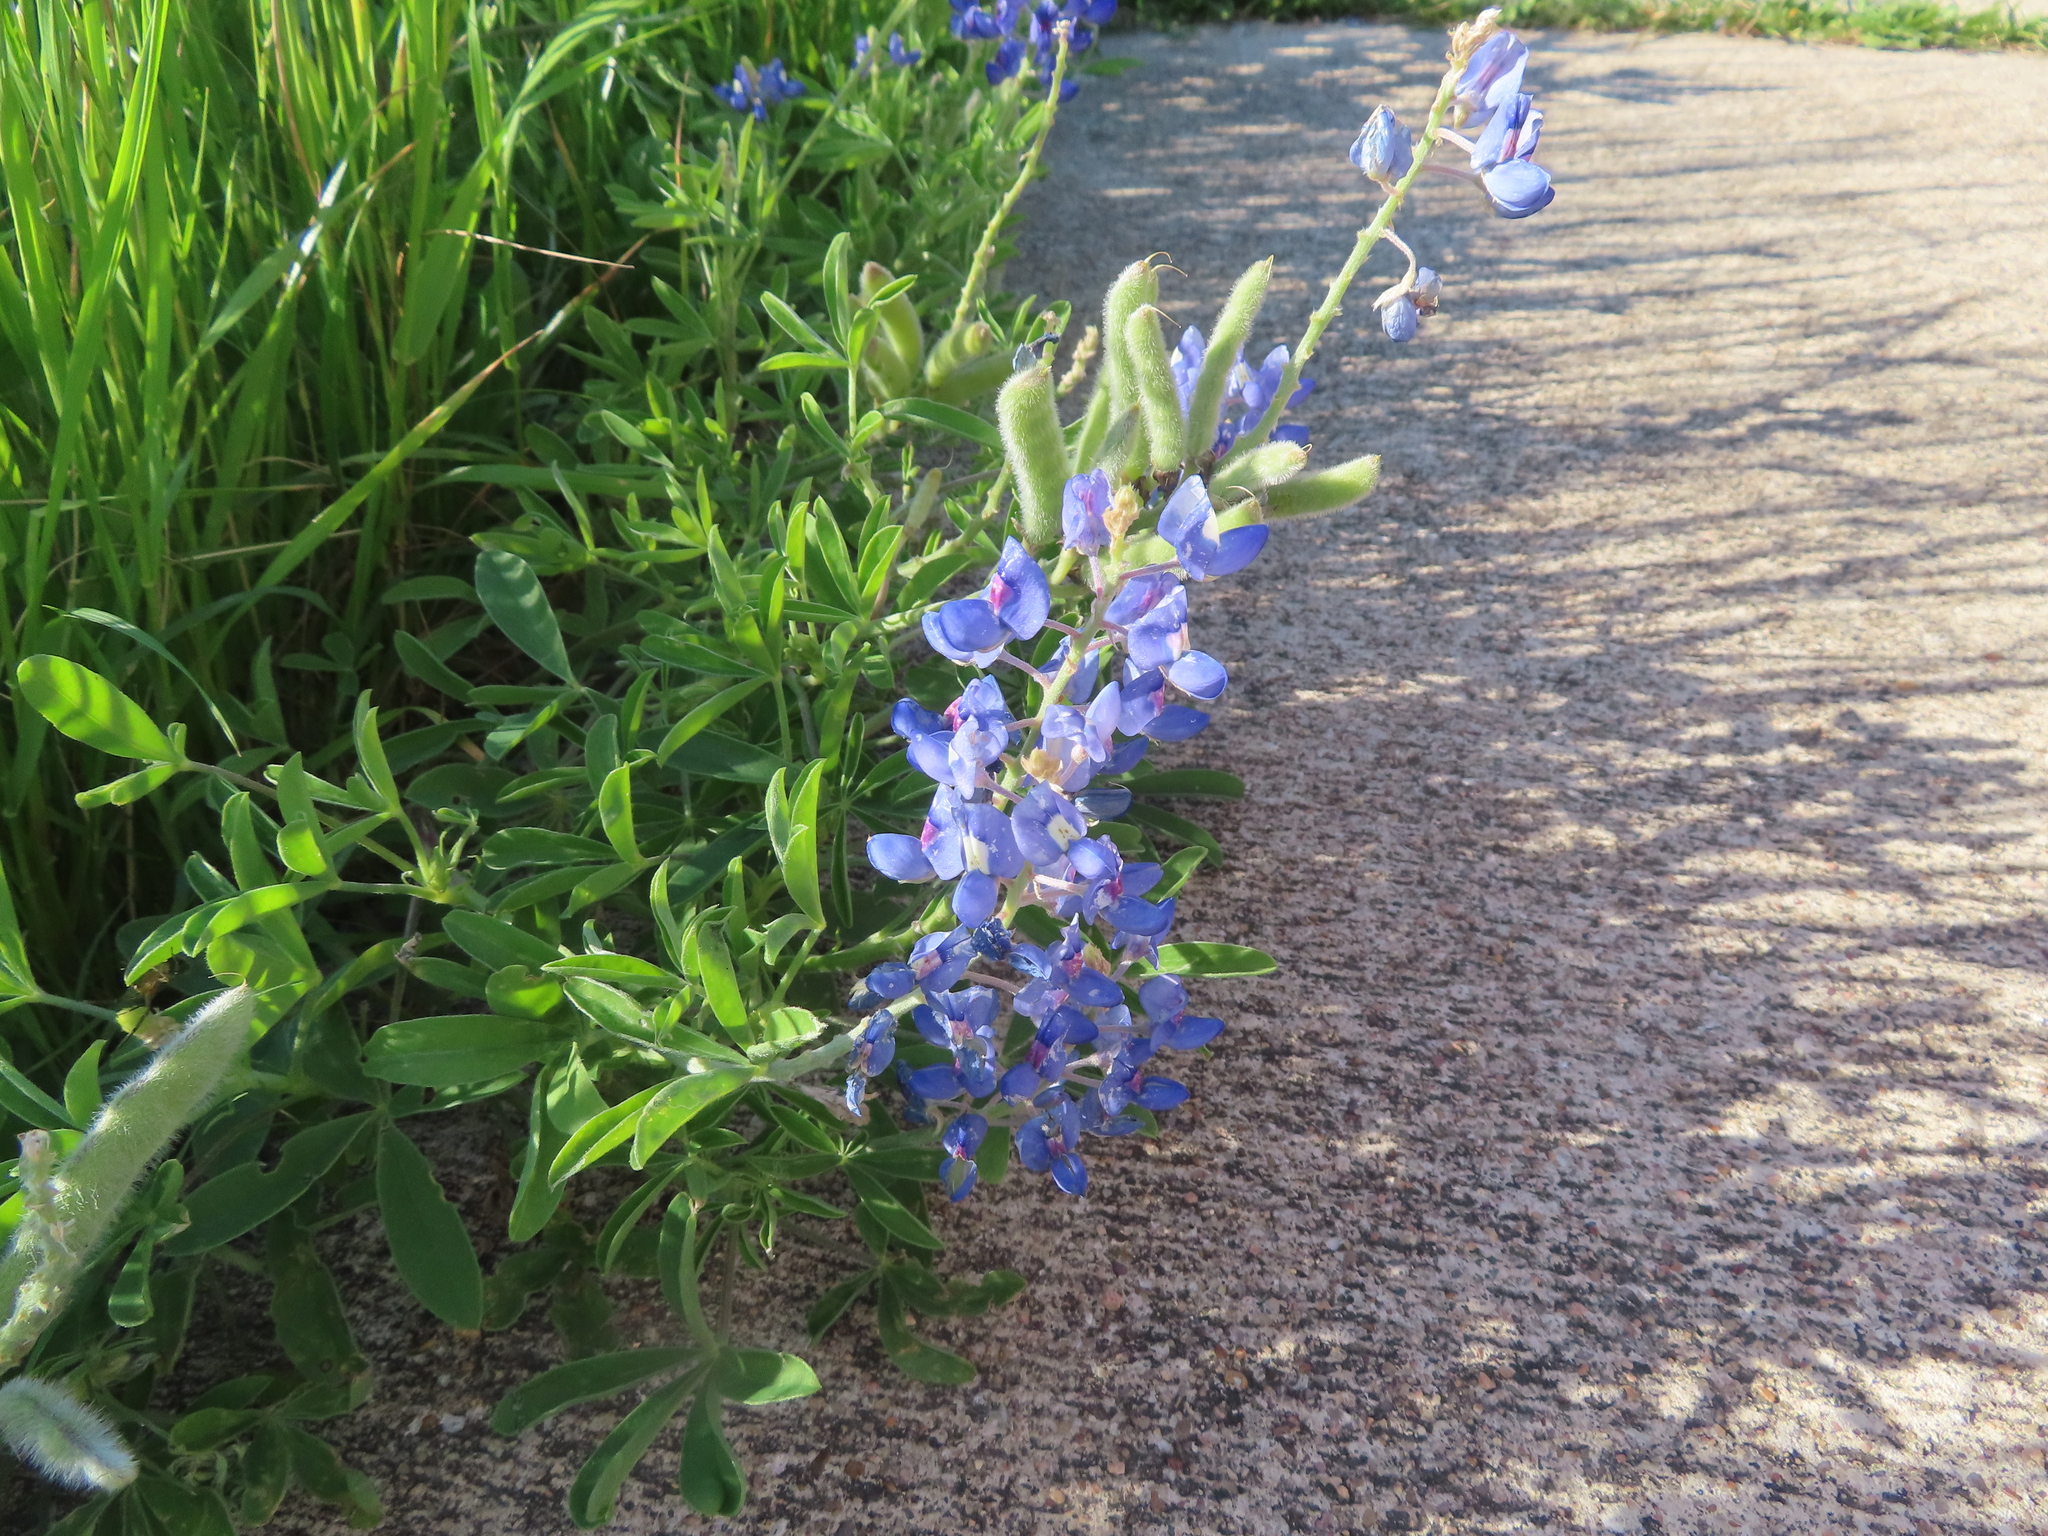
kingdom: Plantae
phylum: Tracheophyta
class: Magnoliopsida
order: Fabales
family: Fabaceae
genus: Lupinus
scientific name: Lupinus texensis
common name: Texas bluebonnet
